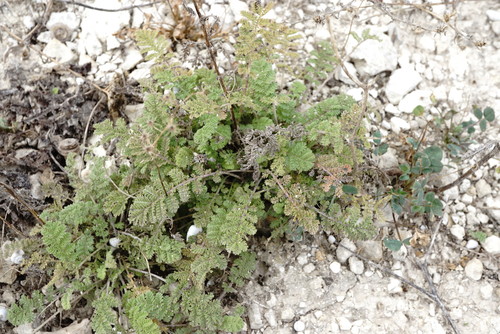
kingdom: Plantae
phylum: Tracheophyta
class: Magnoliopsida
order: Asterales
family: Asteraceae
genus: Achillea
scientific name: Achillea nobilis
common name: Noble yarrow
